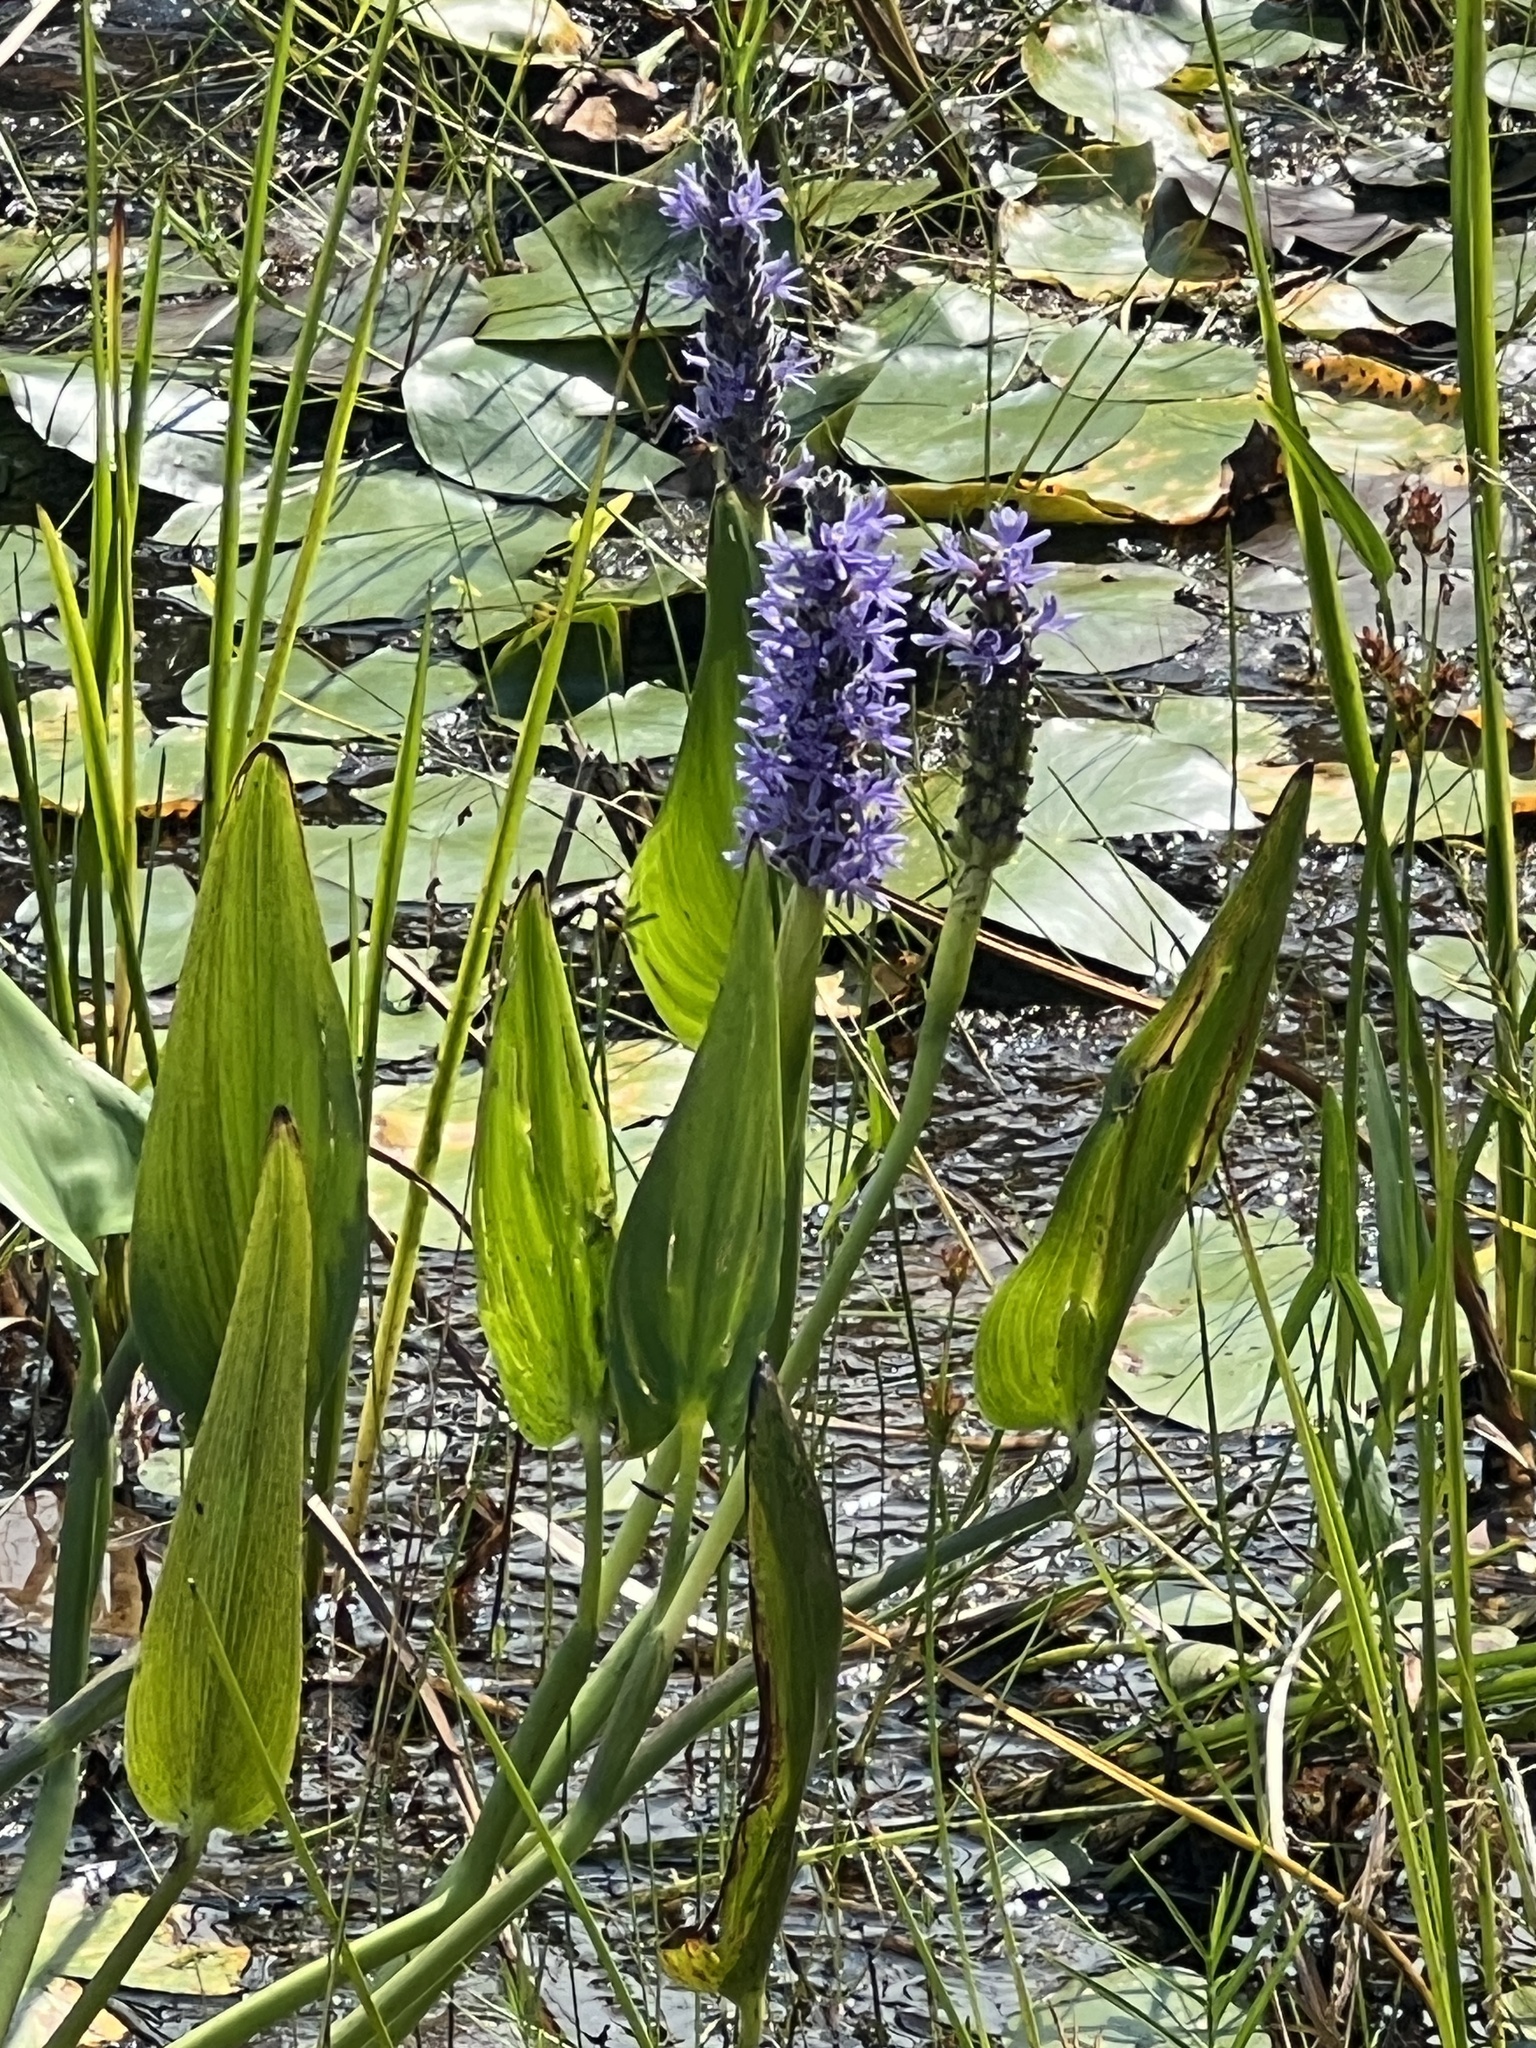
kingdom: Plantae
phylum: Tracheophyta
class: Liliopsida
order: Commelinales
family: Pontederiaceae
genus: Pontederia
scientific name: Pontederia cordata
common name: Pickerelweed
